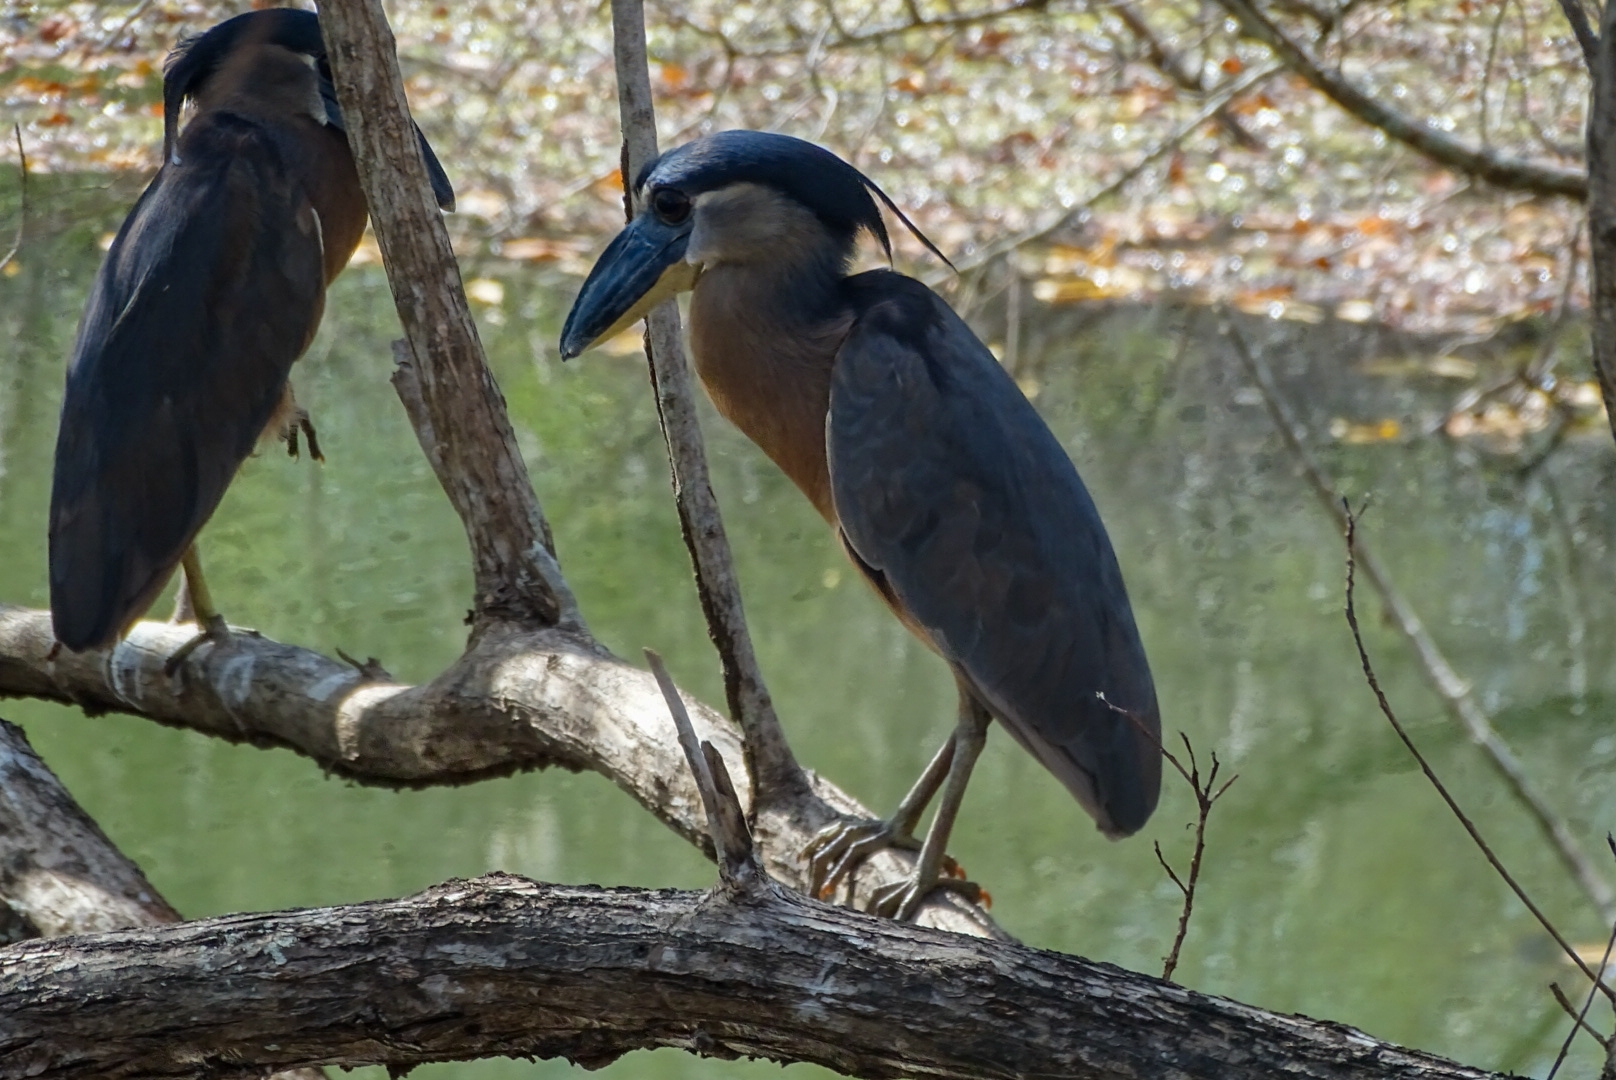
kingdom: Animalia
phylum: Chordata
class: Aves
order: Pelecaniformes
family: Ardeidae
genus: Cochlearius
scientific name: Cochlearius cochlearius
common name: Boat-billed heron
